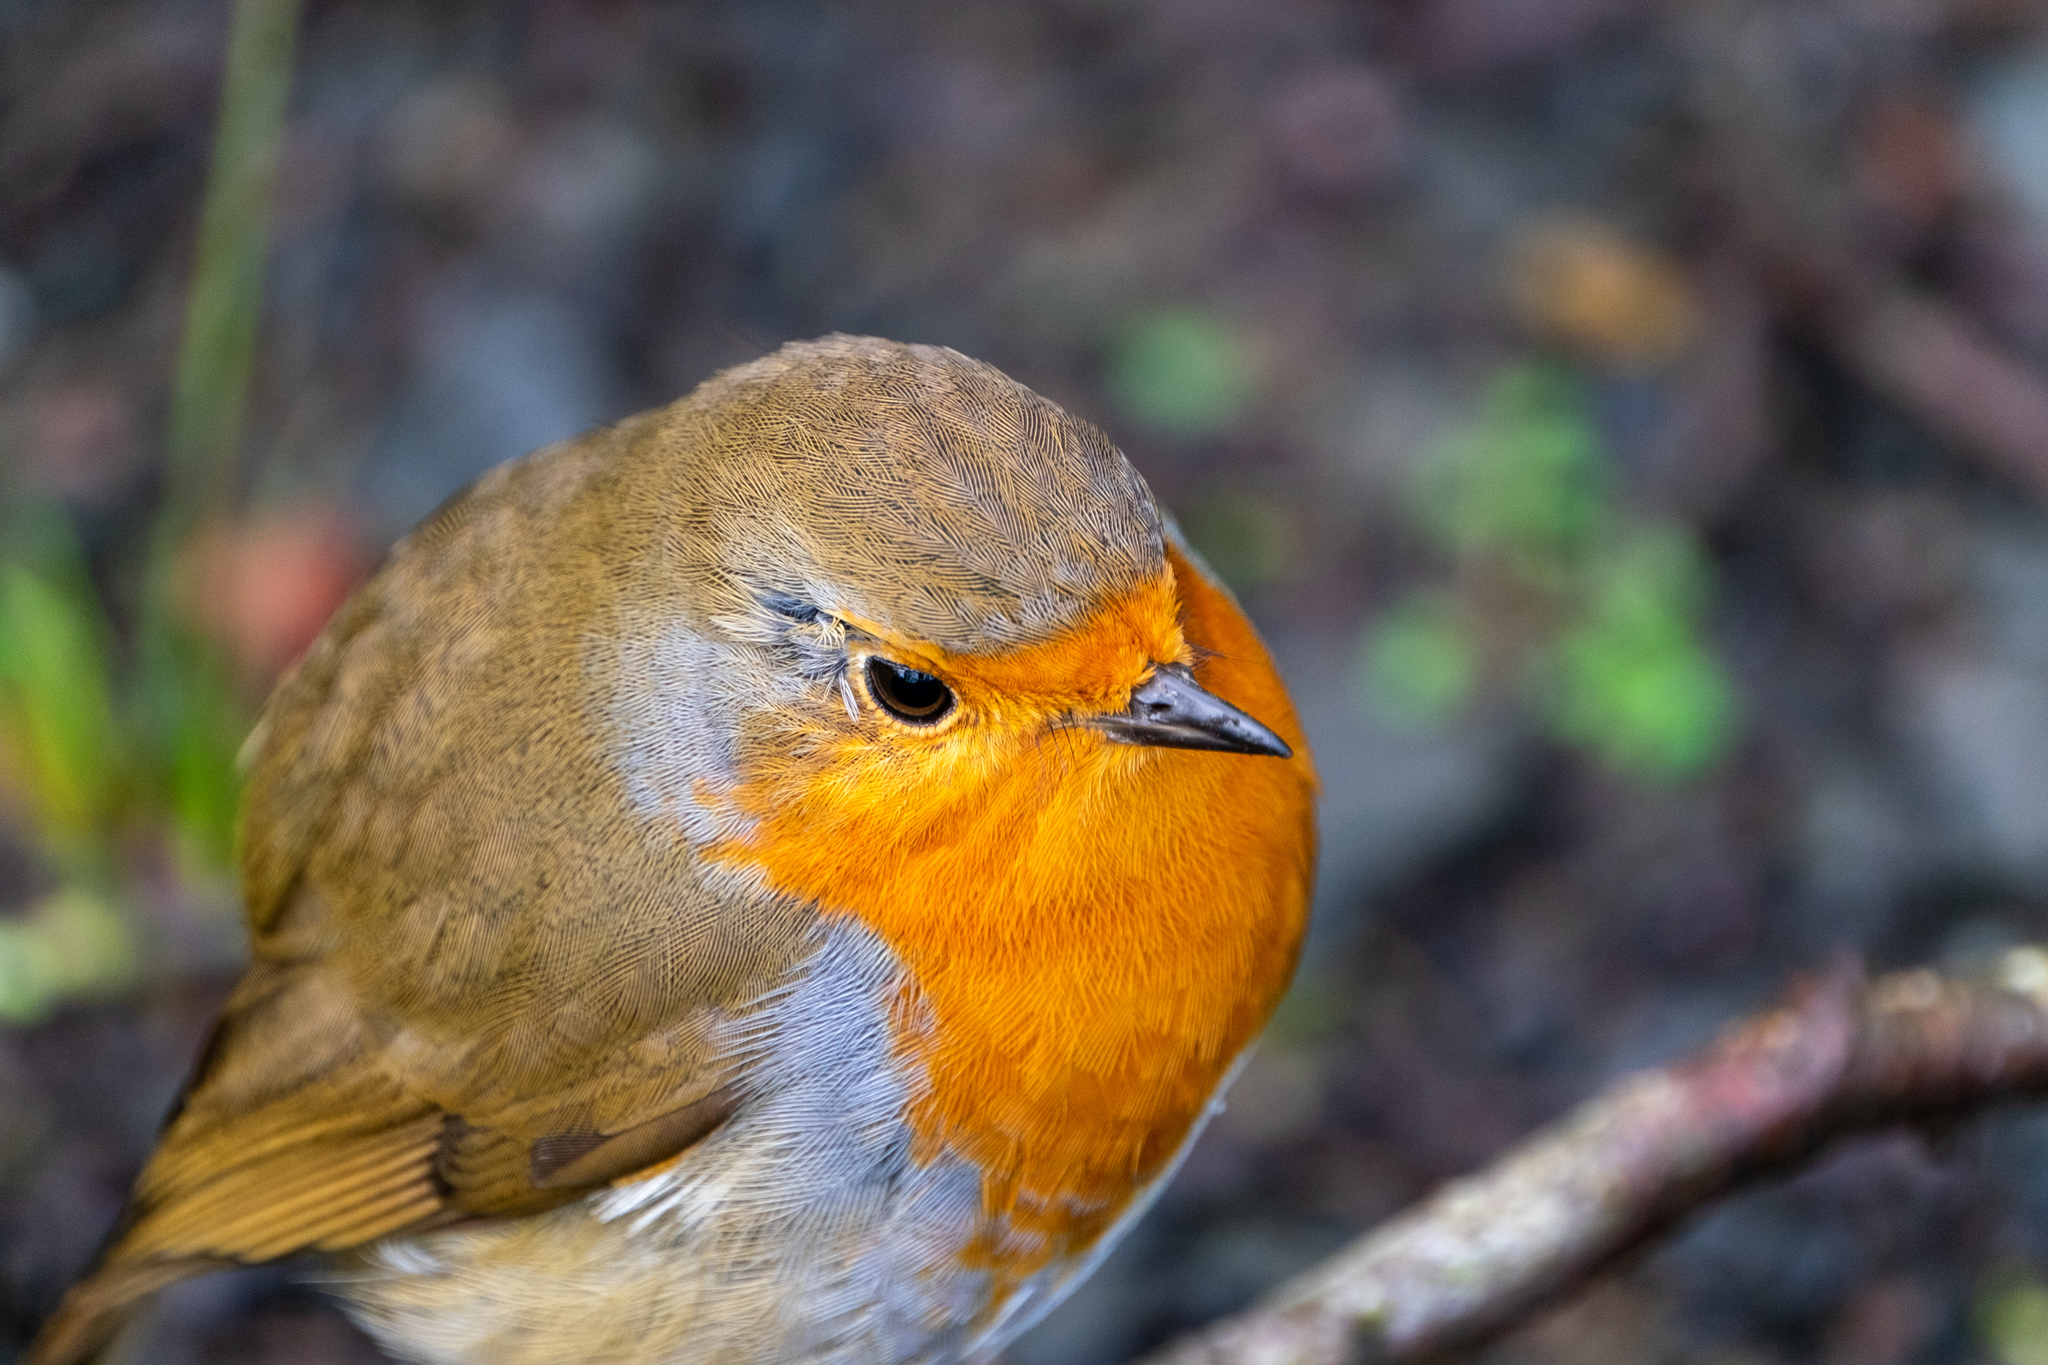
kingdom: Animalia
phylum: Chordata
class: Aves
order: Passeriformes
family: Muscicapidae
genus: Erithacus
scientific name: Erithacus rubecula
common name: European robin
